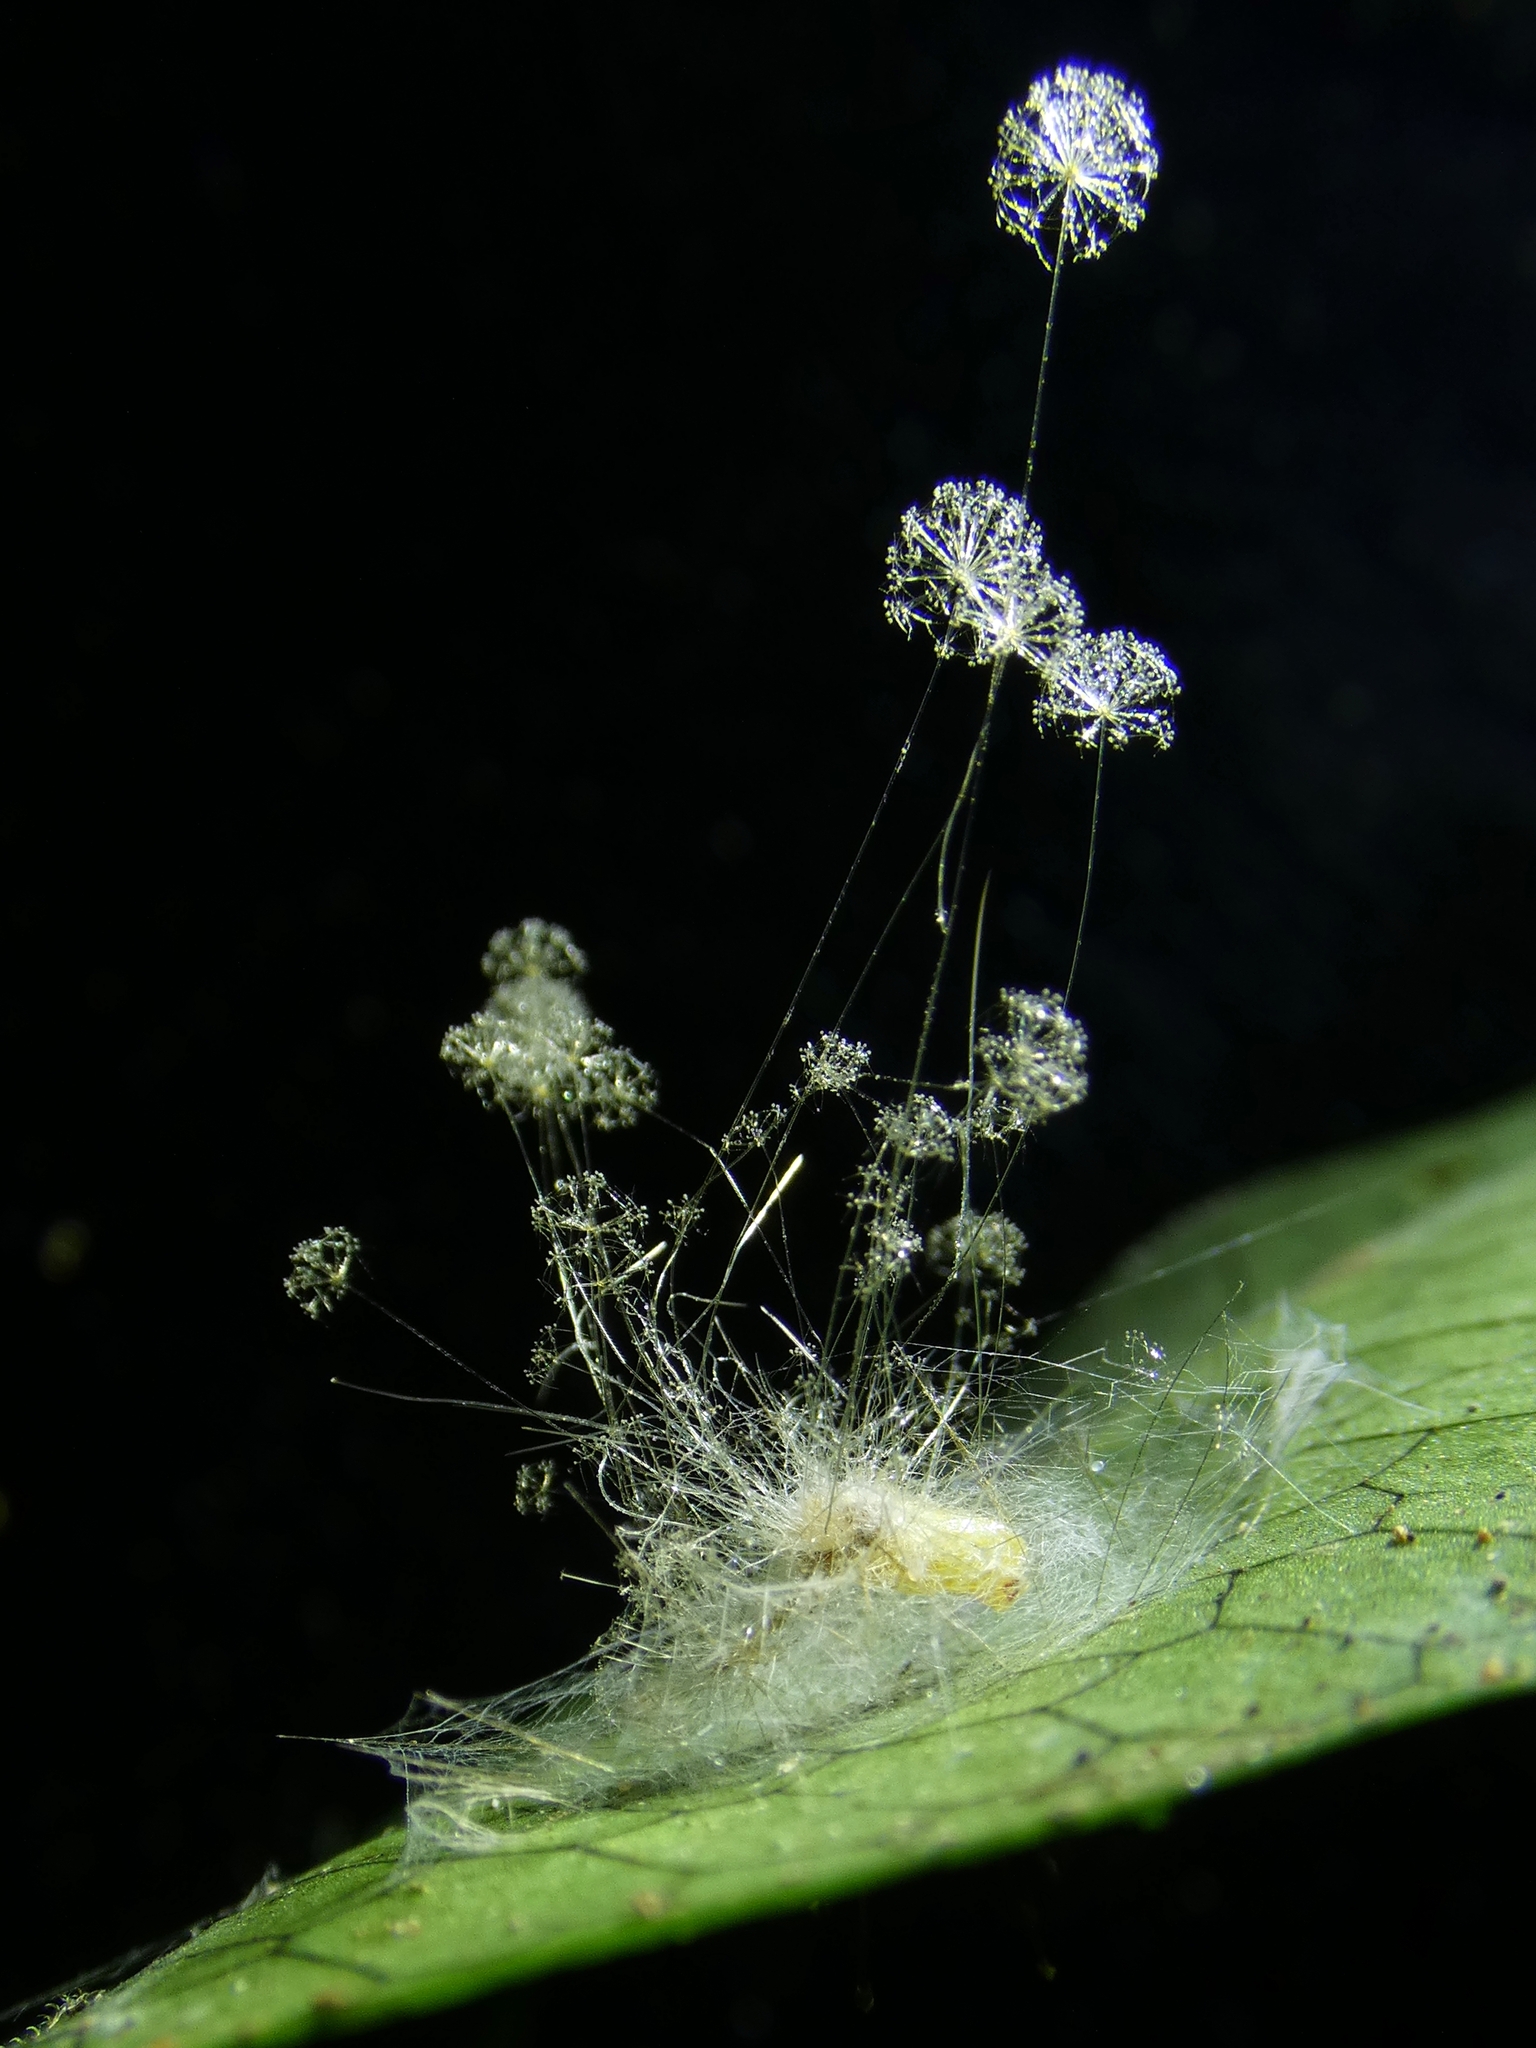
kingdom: Fungi
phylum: Mucoromycota
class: Mucoromycetes
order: Mucorales
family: Mucoraceae
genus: Sporodiniella
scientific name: Sporodiniella umbellata
